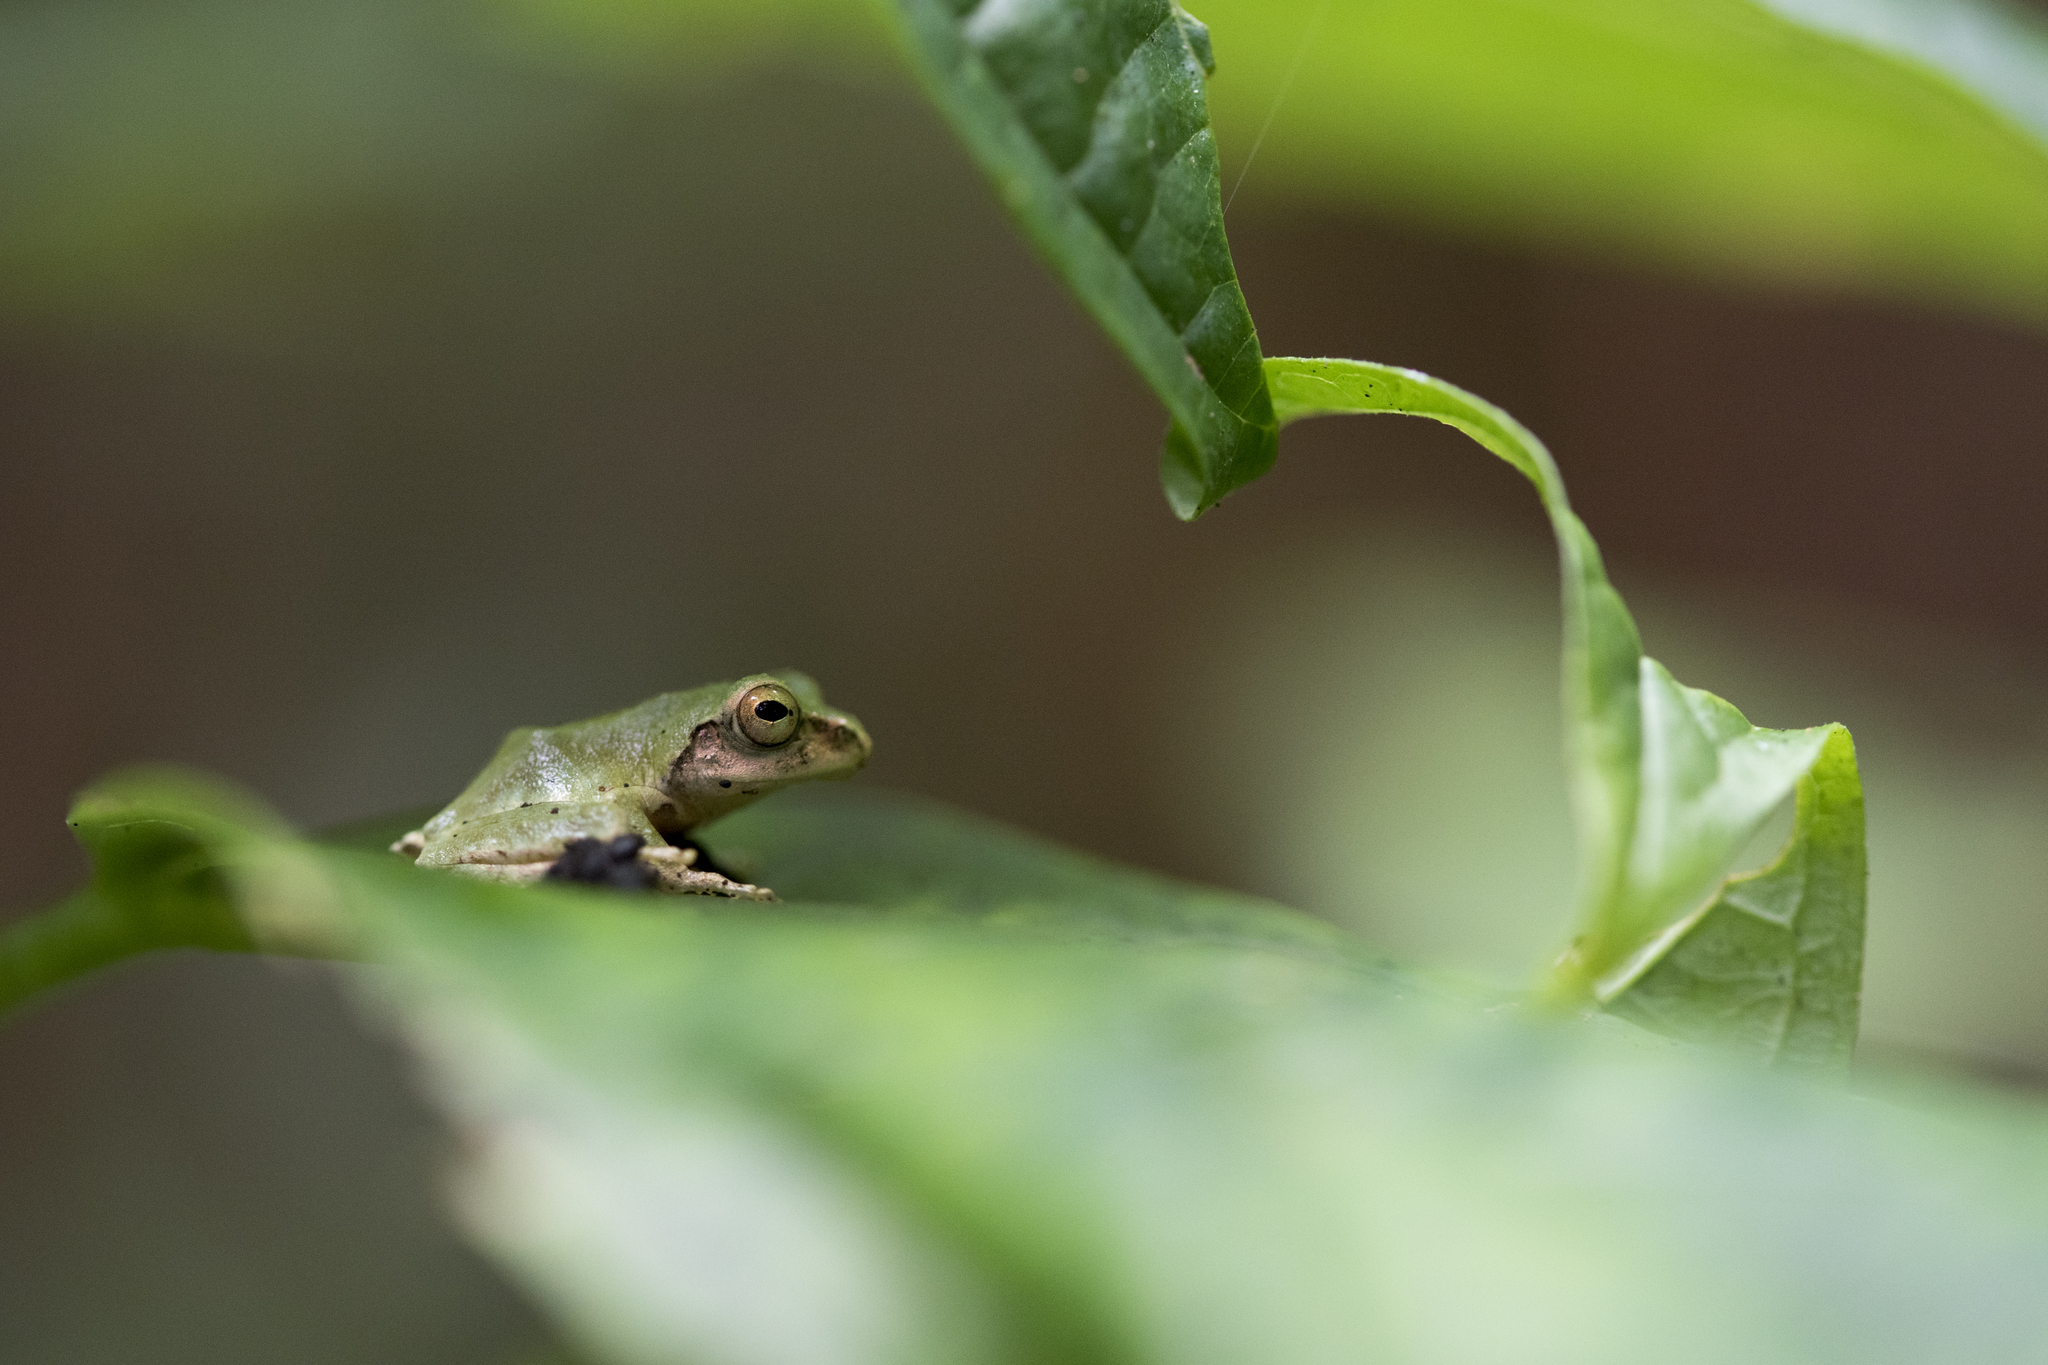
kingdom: Animalia
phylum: Chordata
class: Amphibia
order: Anura
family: Rhacophoridae
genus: Kurixalus
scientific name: Kurixalus eiffingeri
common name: Eiffinger’s treefrog
